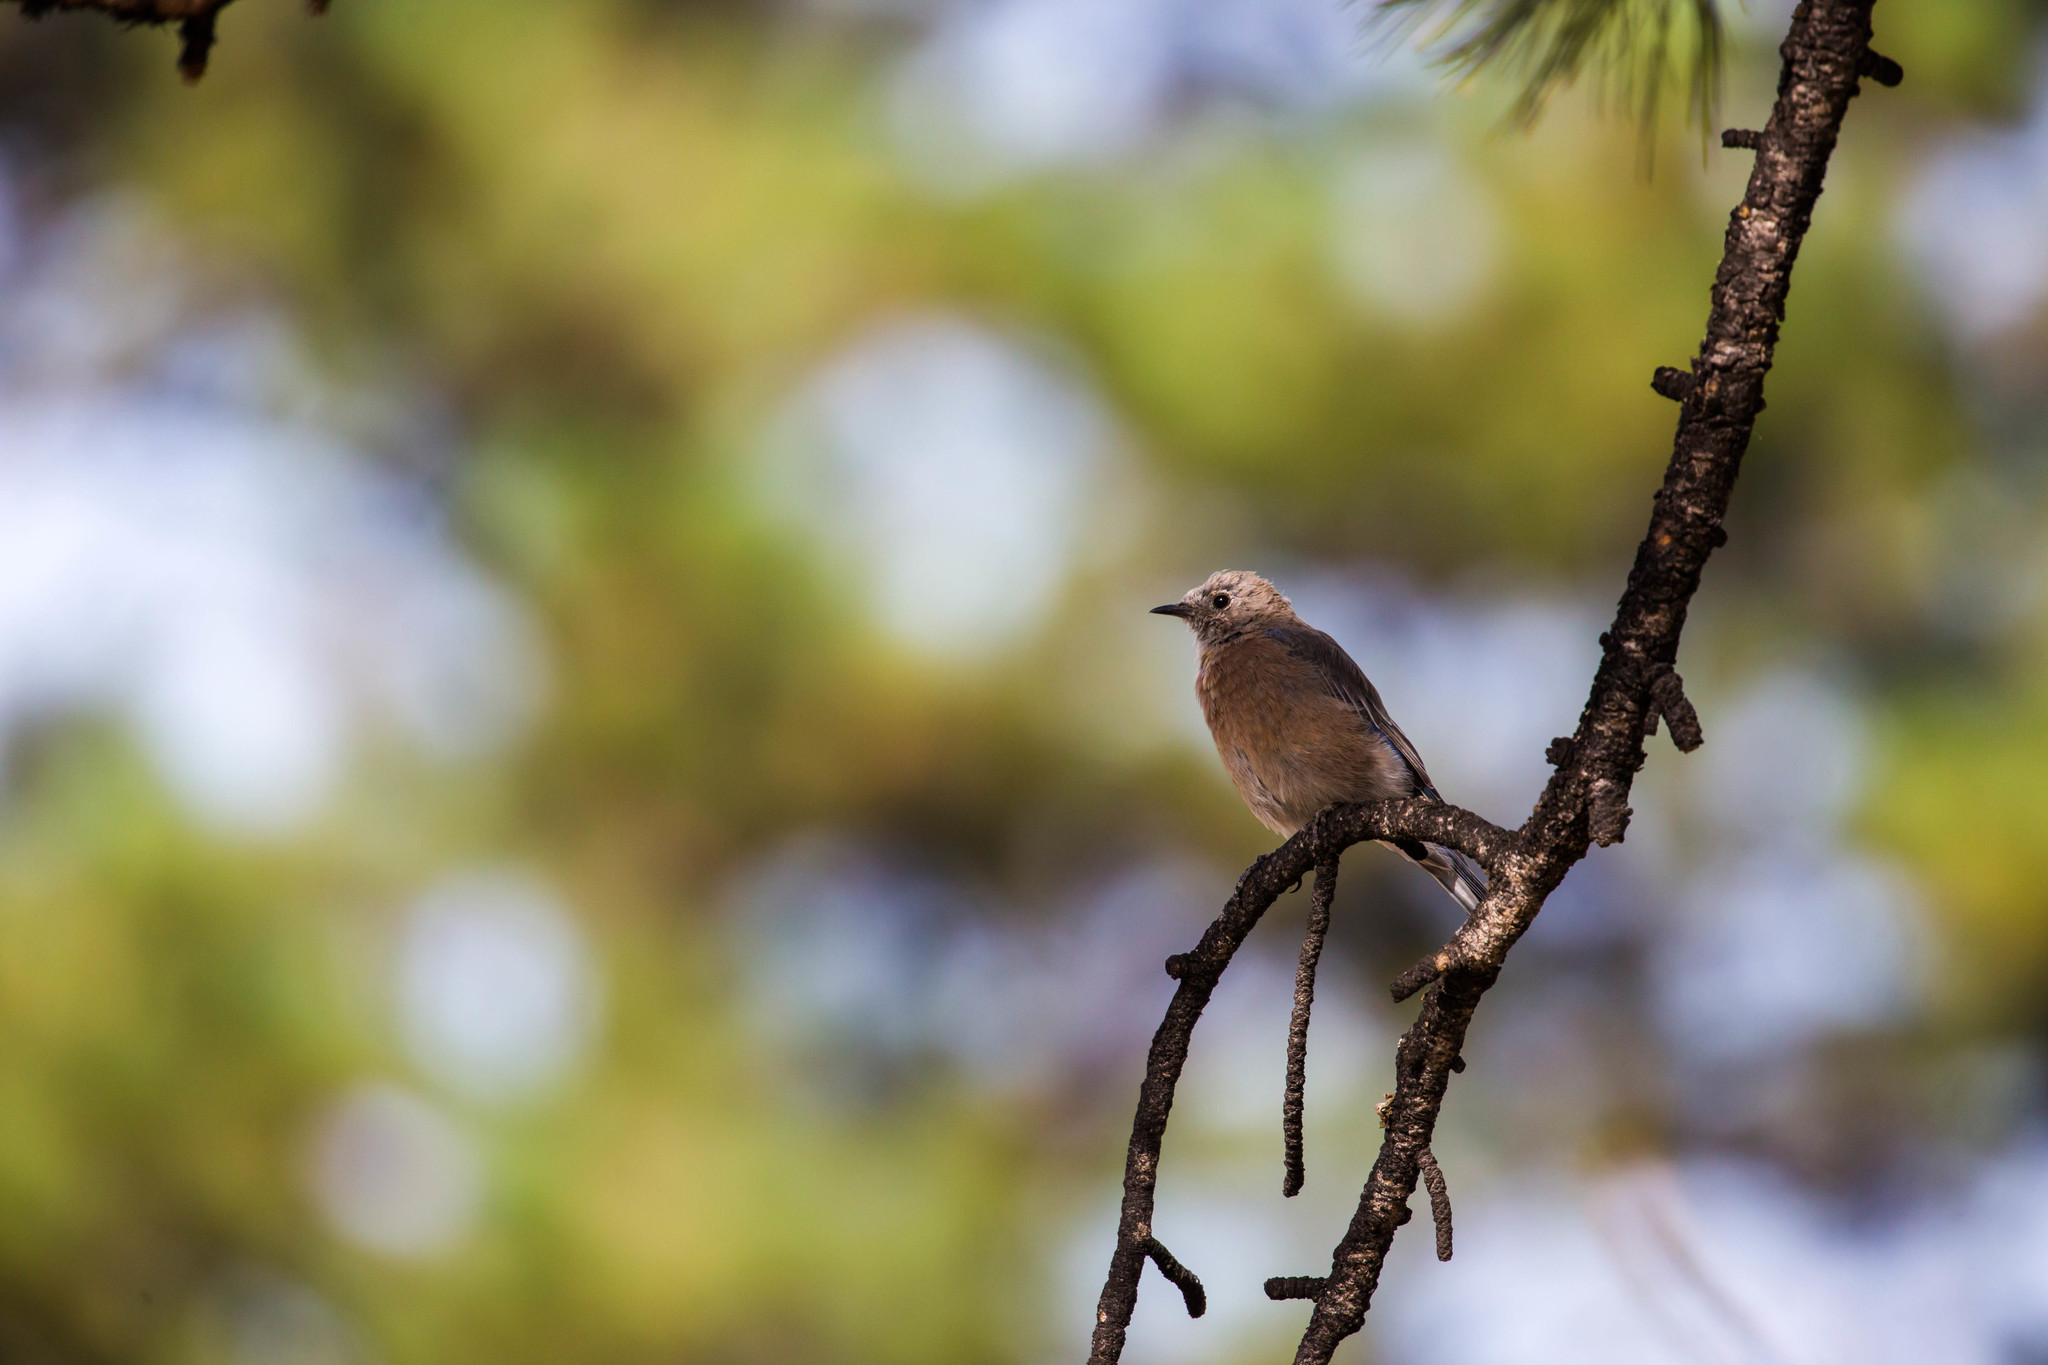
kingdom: Animalia
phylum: Chordata
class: Aves
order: Passeriformes
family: Turdidae
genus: Sialia
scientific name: Sialia mexicana
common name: Western bluebird
